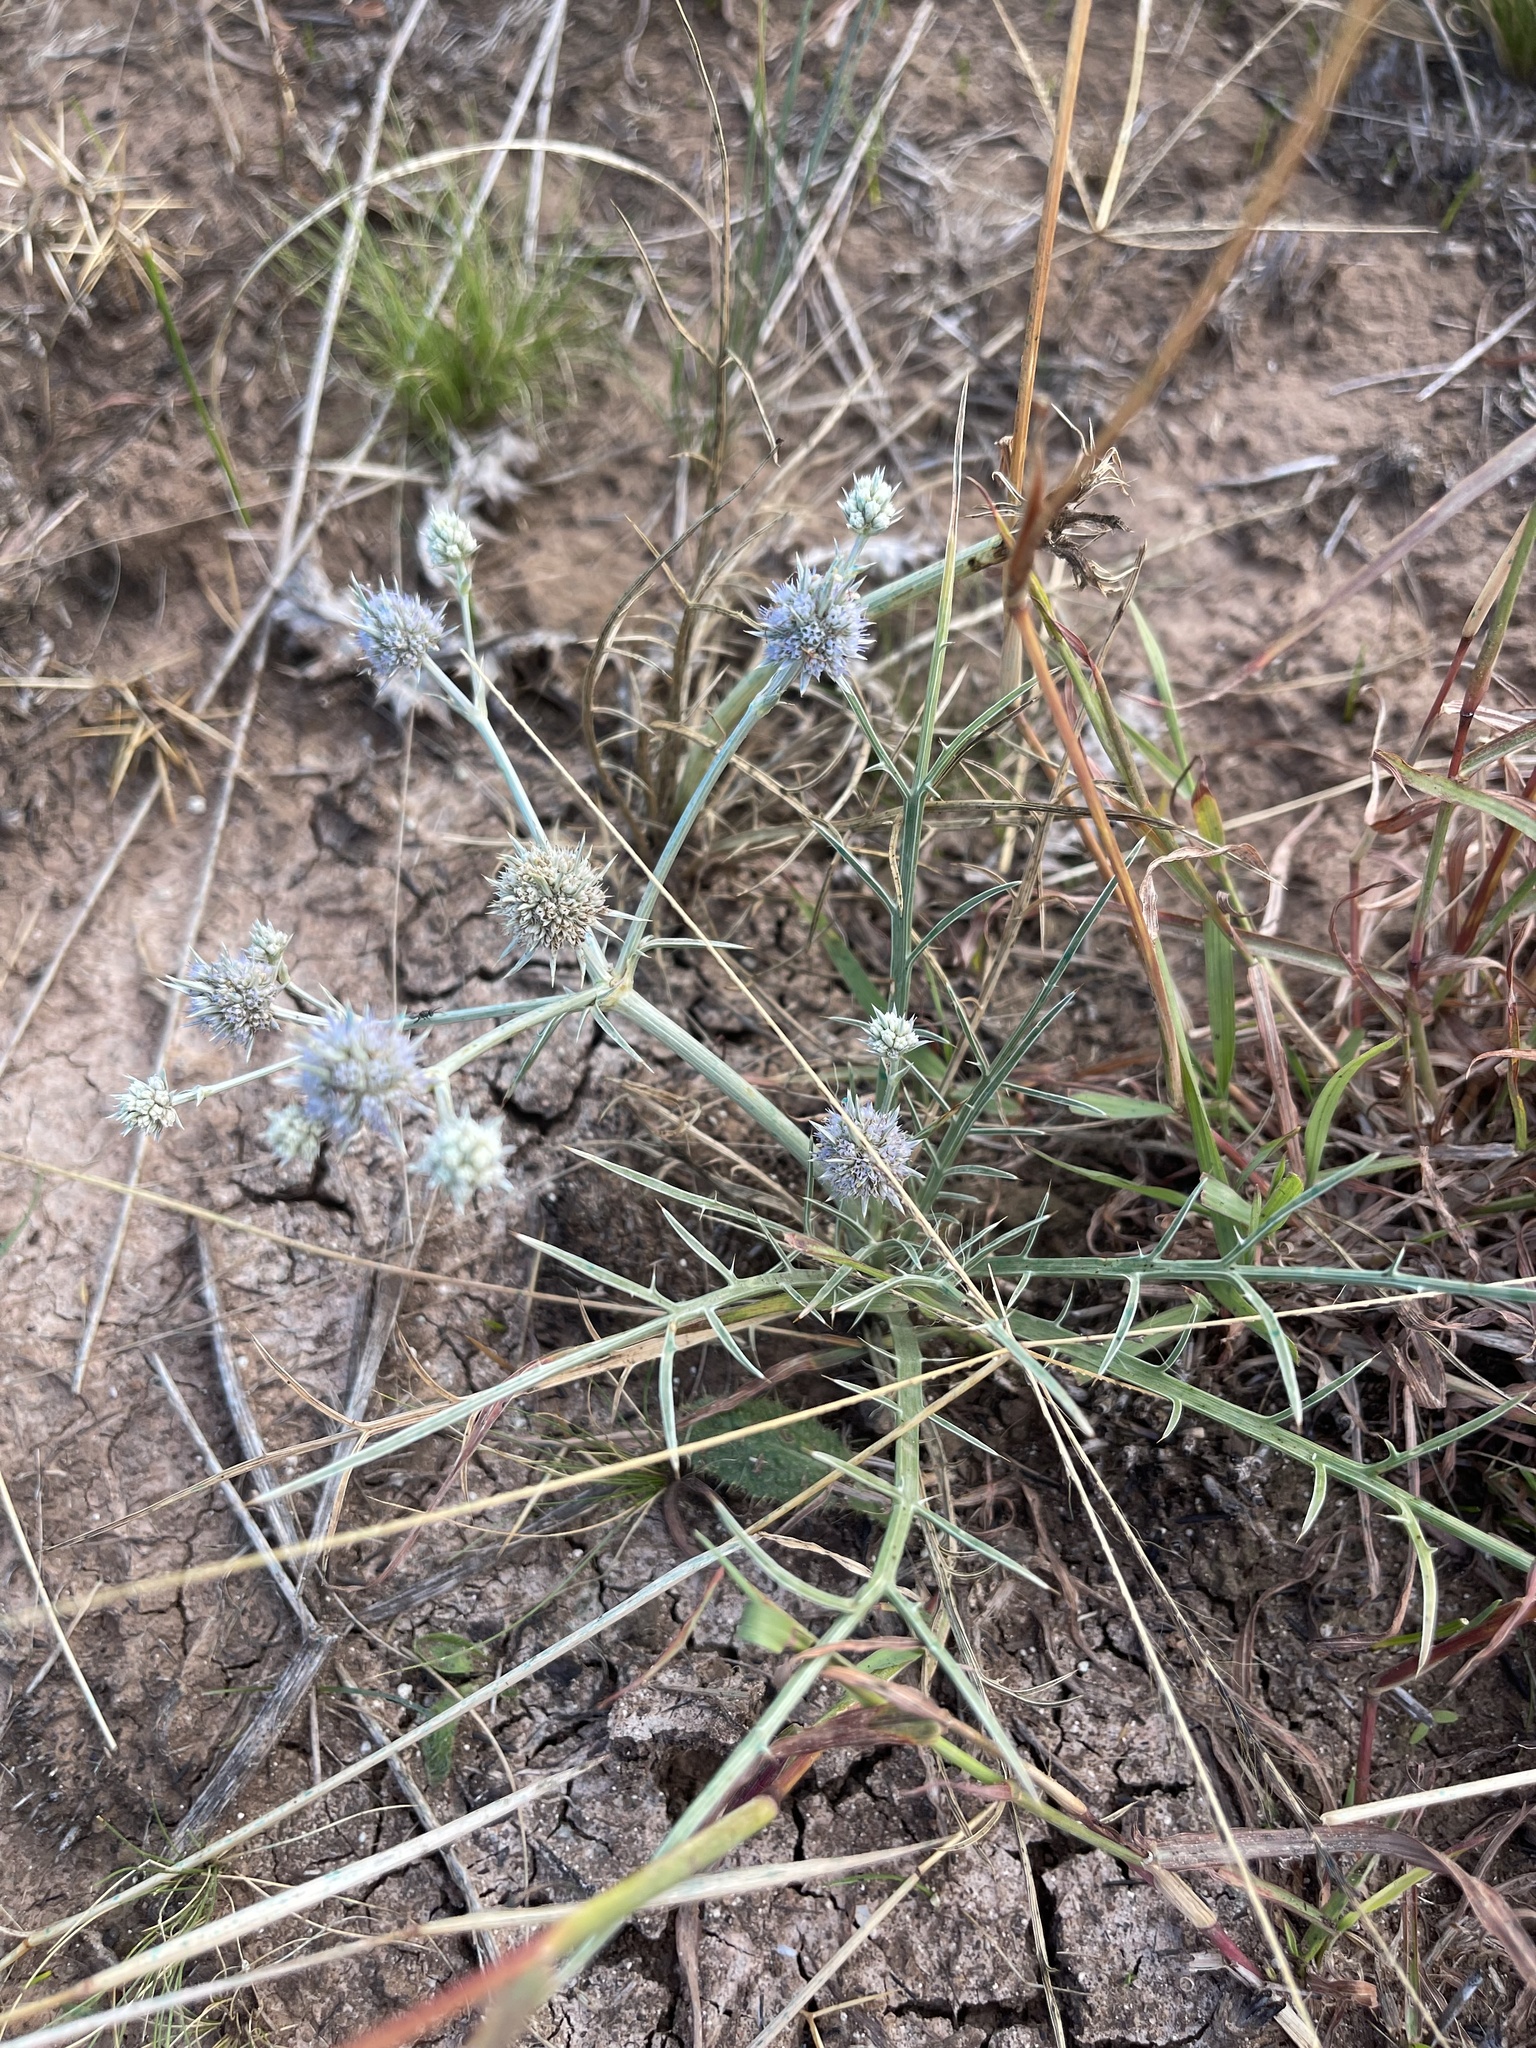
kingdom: Plantae
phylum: Tracheophyta
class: Magnoliopsida
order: Apiales
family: Apiaceae
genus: Eryngium
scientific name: Eryngium ovinum
